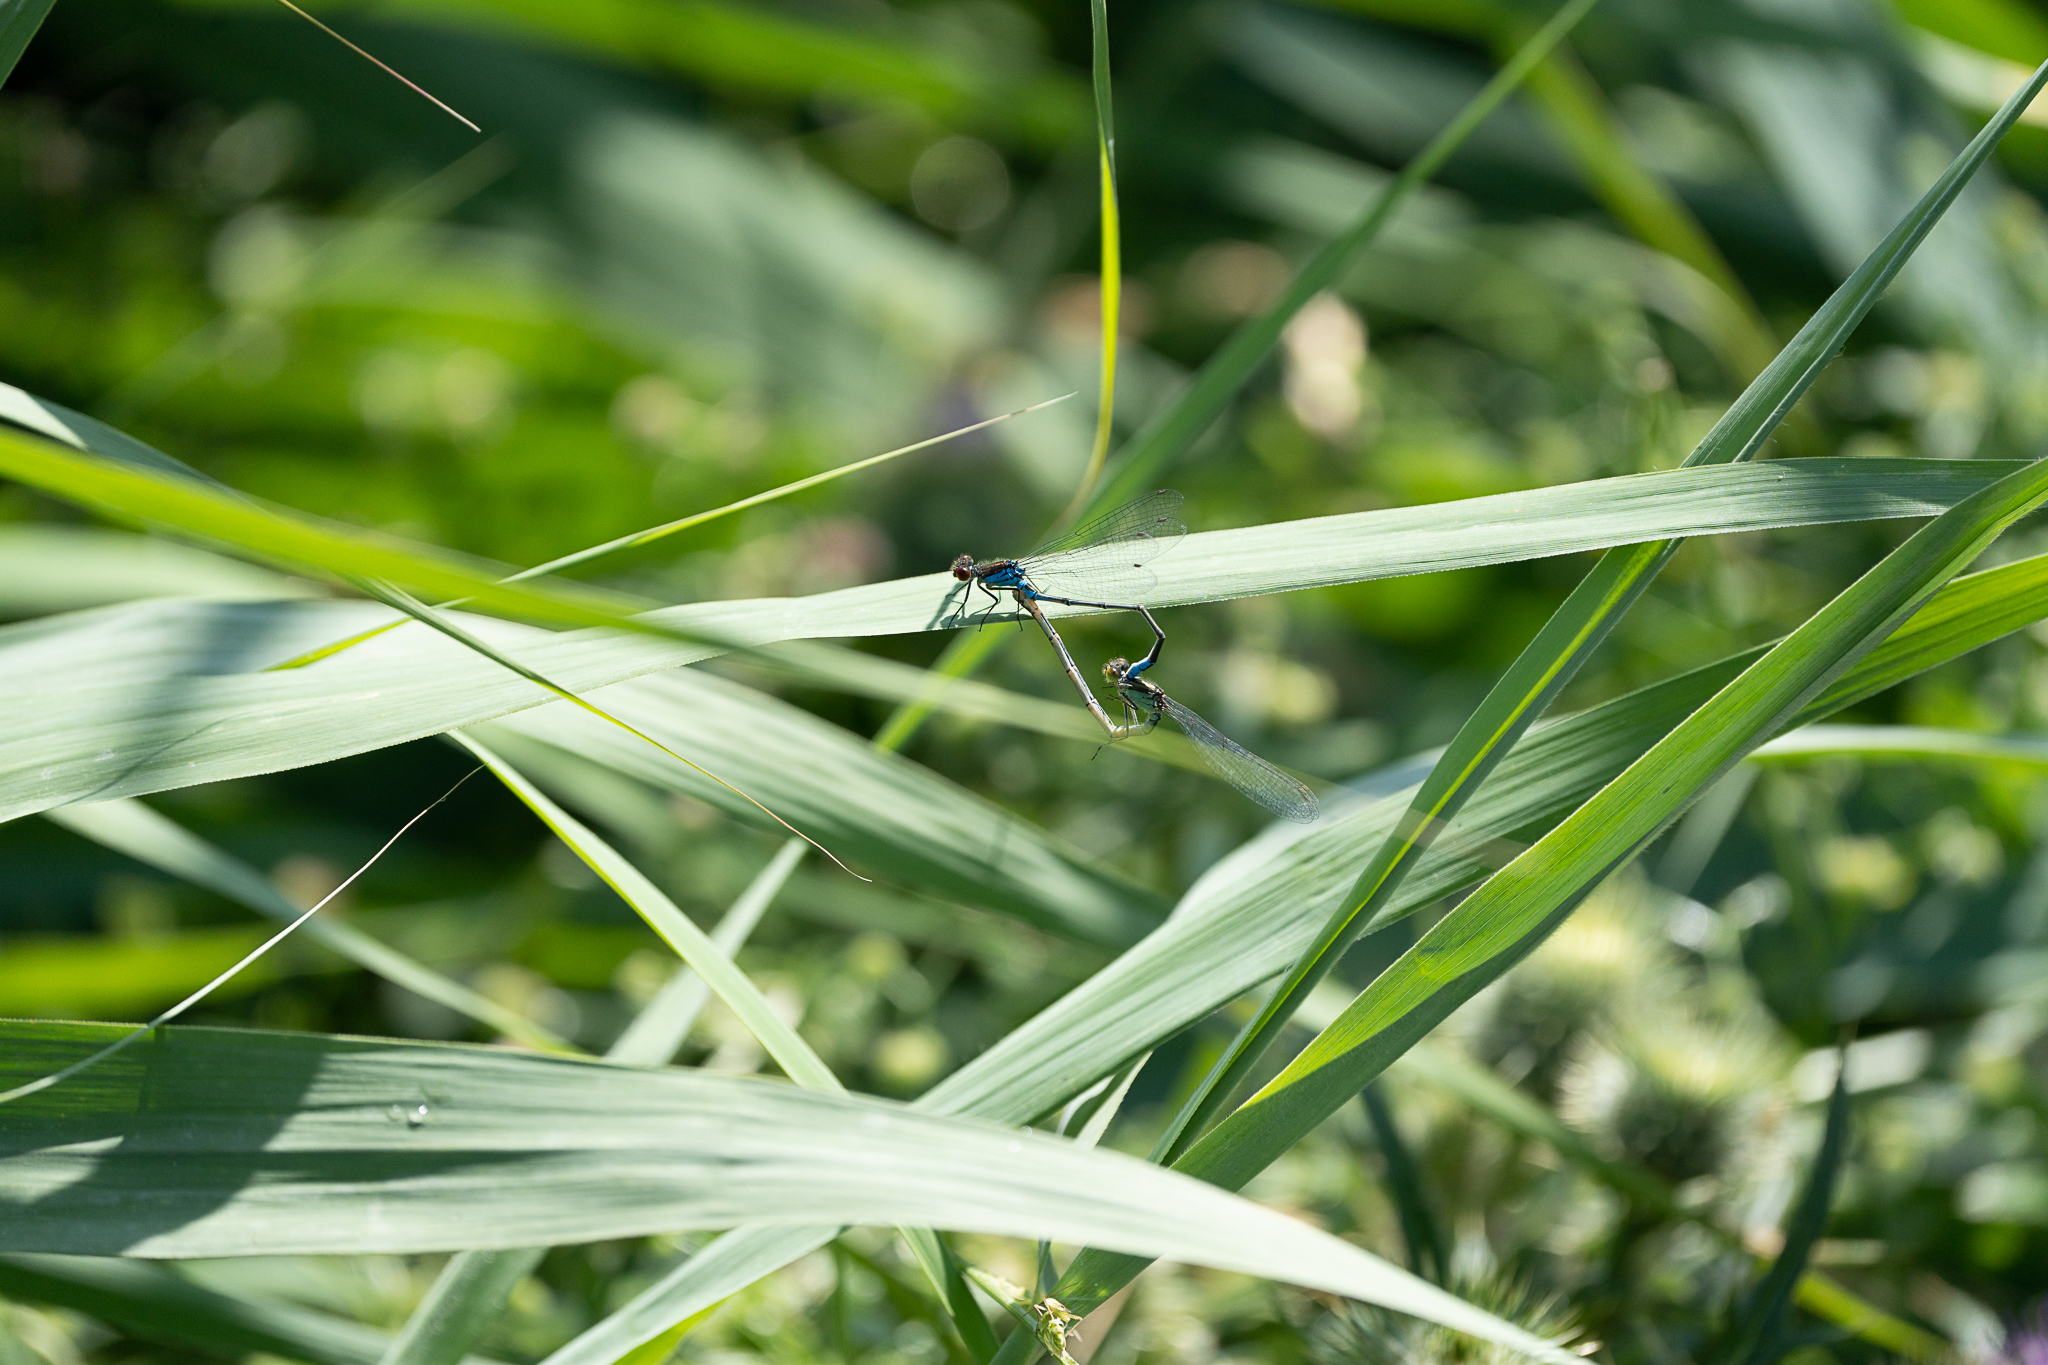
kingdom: Animalia
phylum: Arthropoda
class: Insecta
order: Odonata
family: Coenagrionidae
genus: Erythromma
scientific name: Erythromma viridulum
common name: Small red-eyed damselfly
